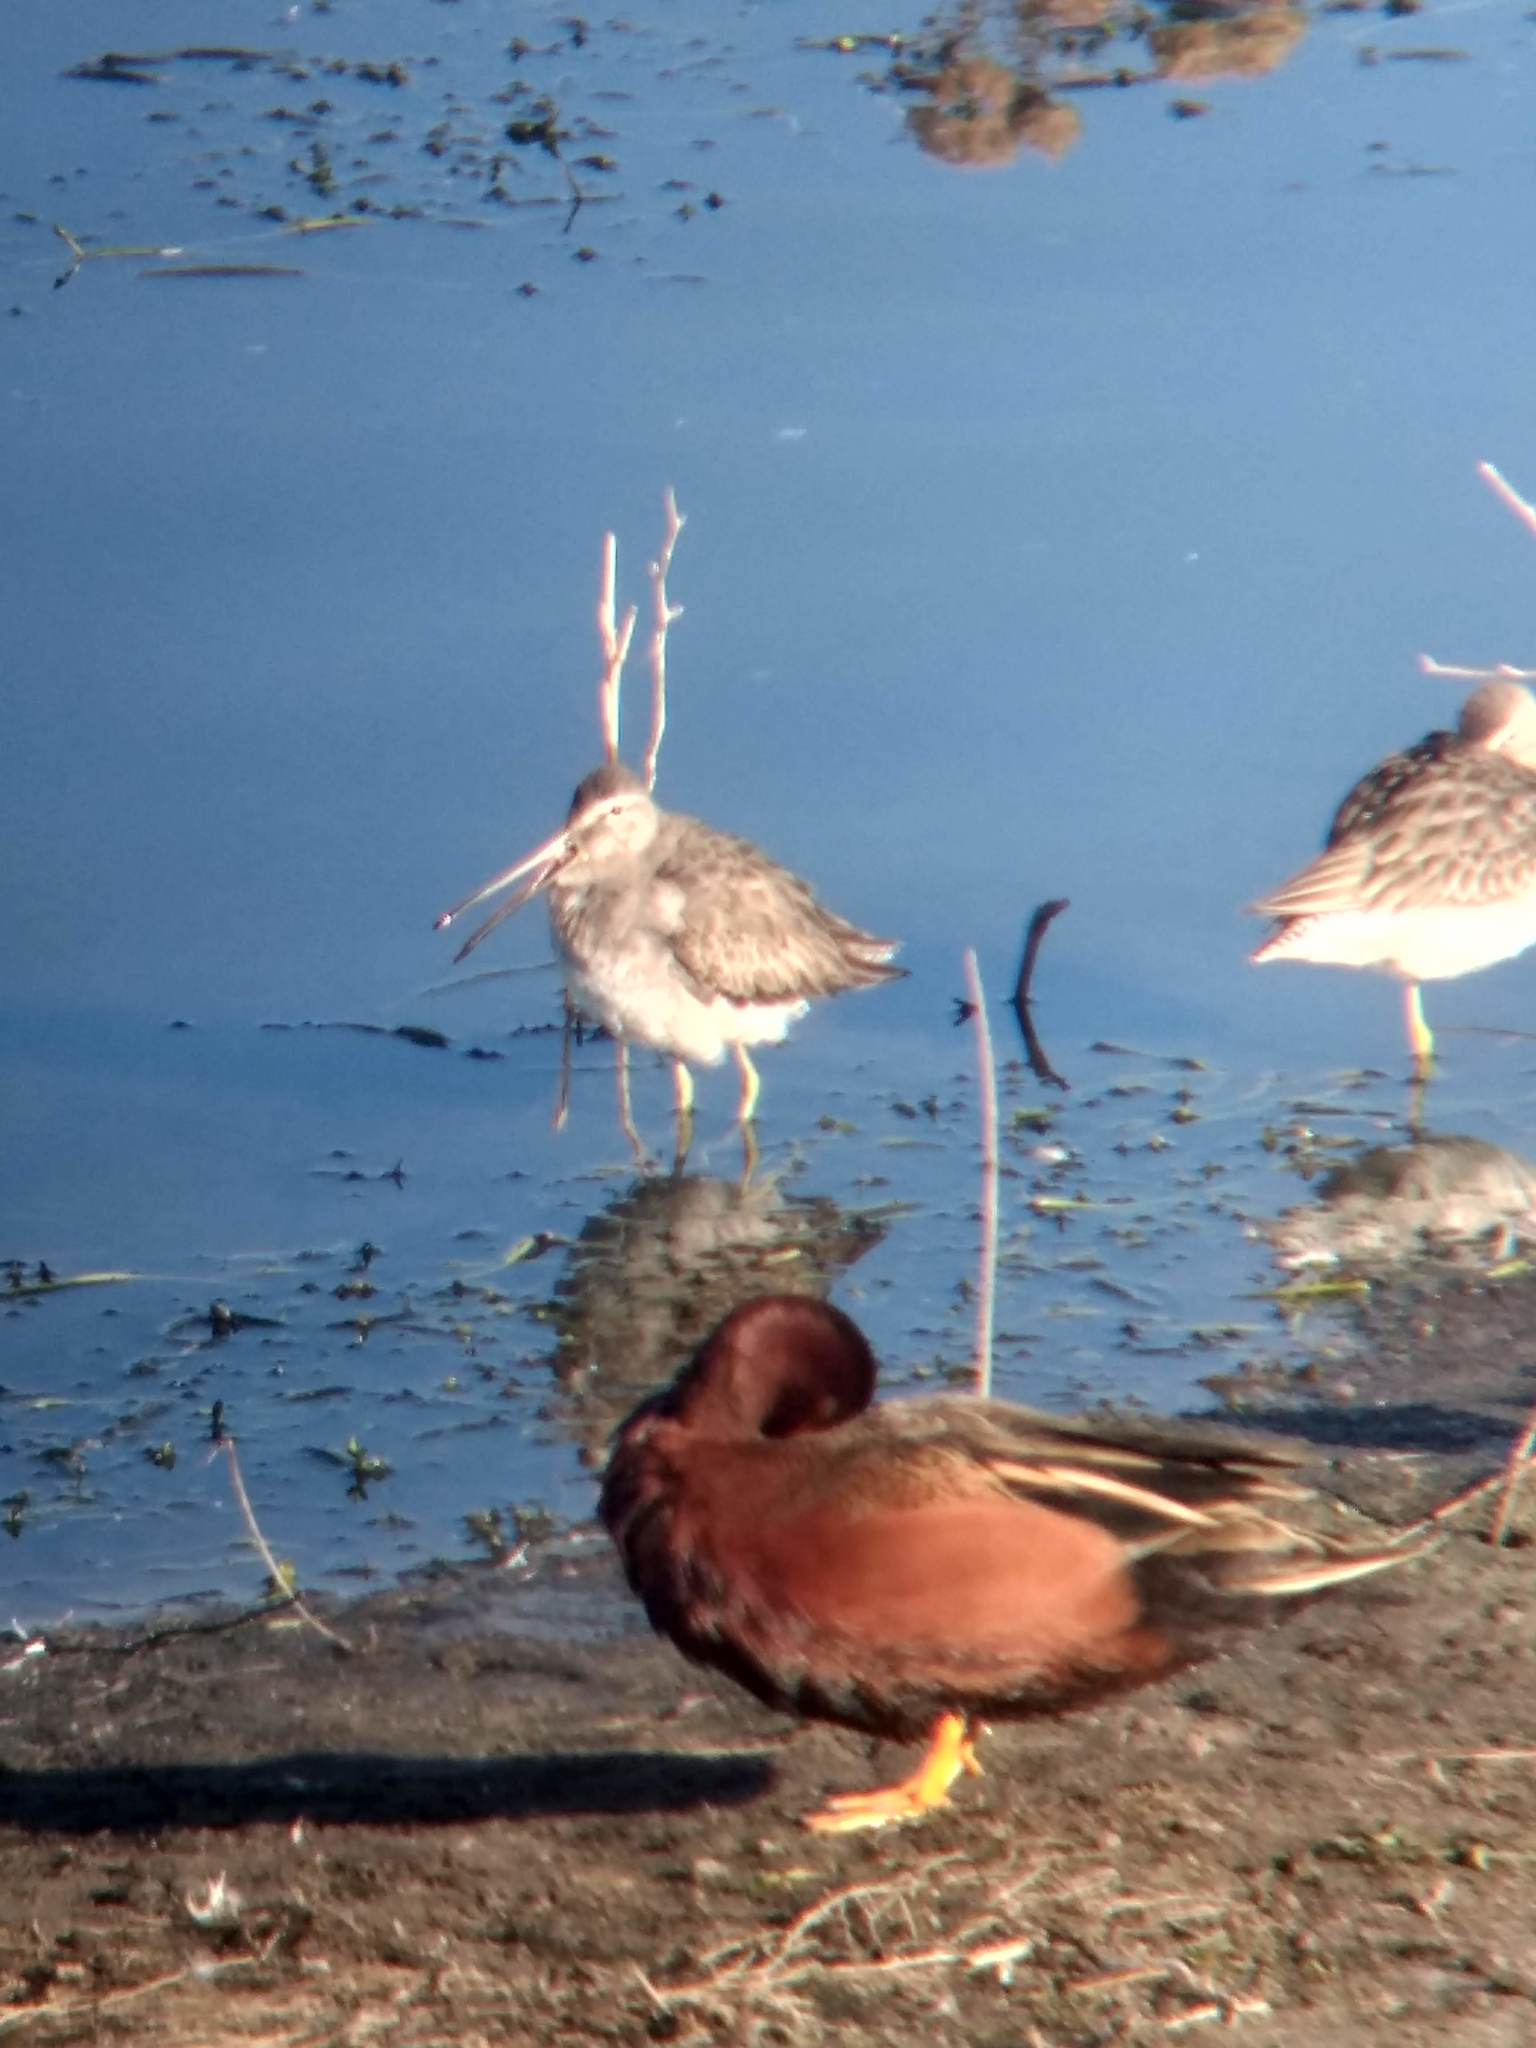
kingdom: Animalia
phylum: Chordata
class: Aves
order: Anseriformes
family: Anatidae
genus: Spatula
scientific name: Spatula cyanoptera
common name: Cinnamon teal
